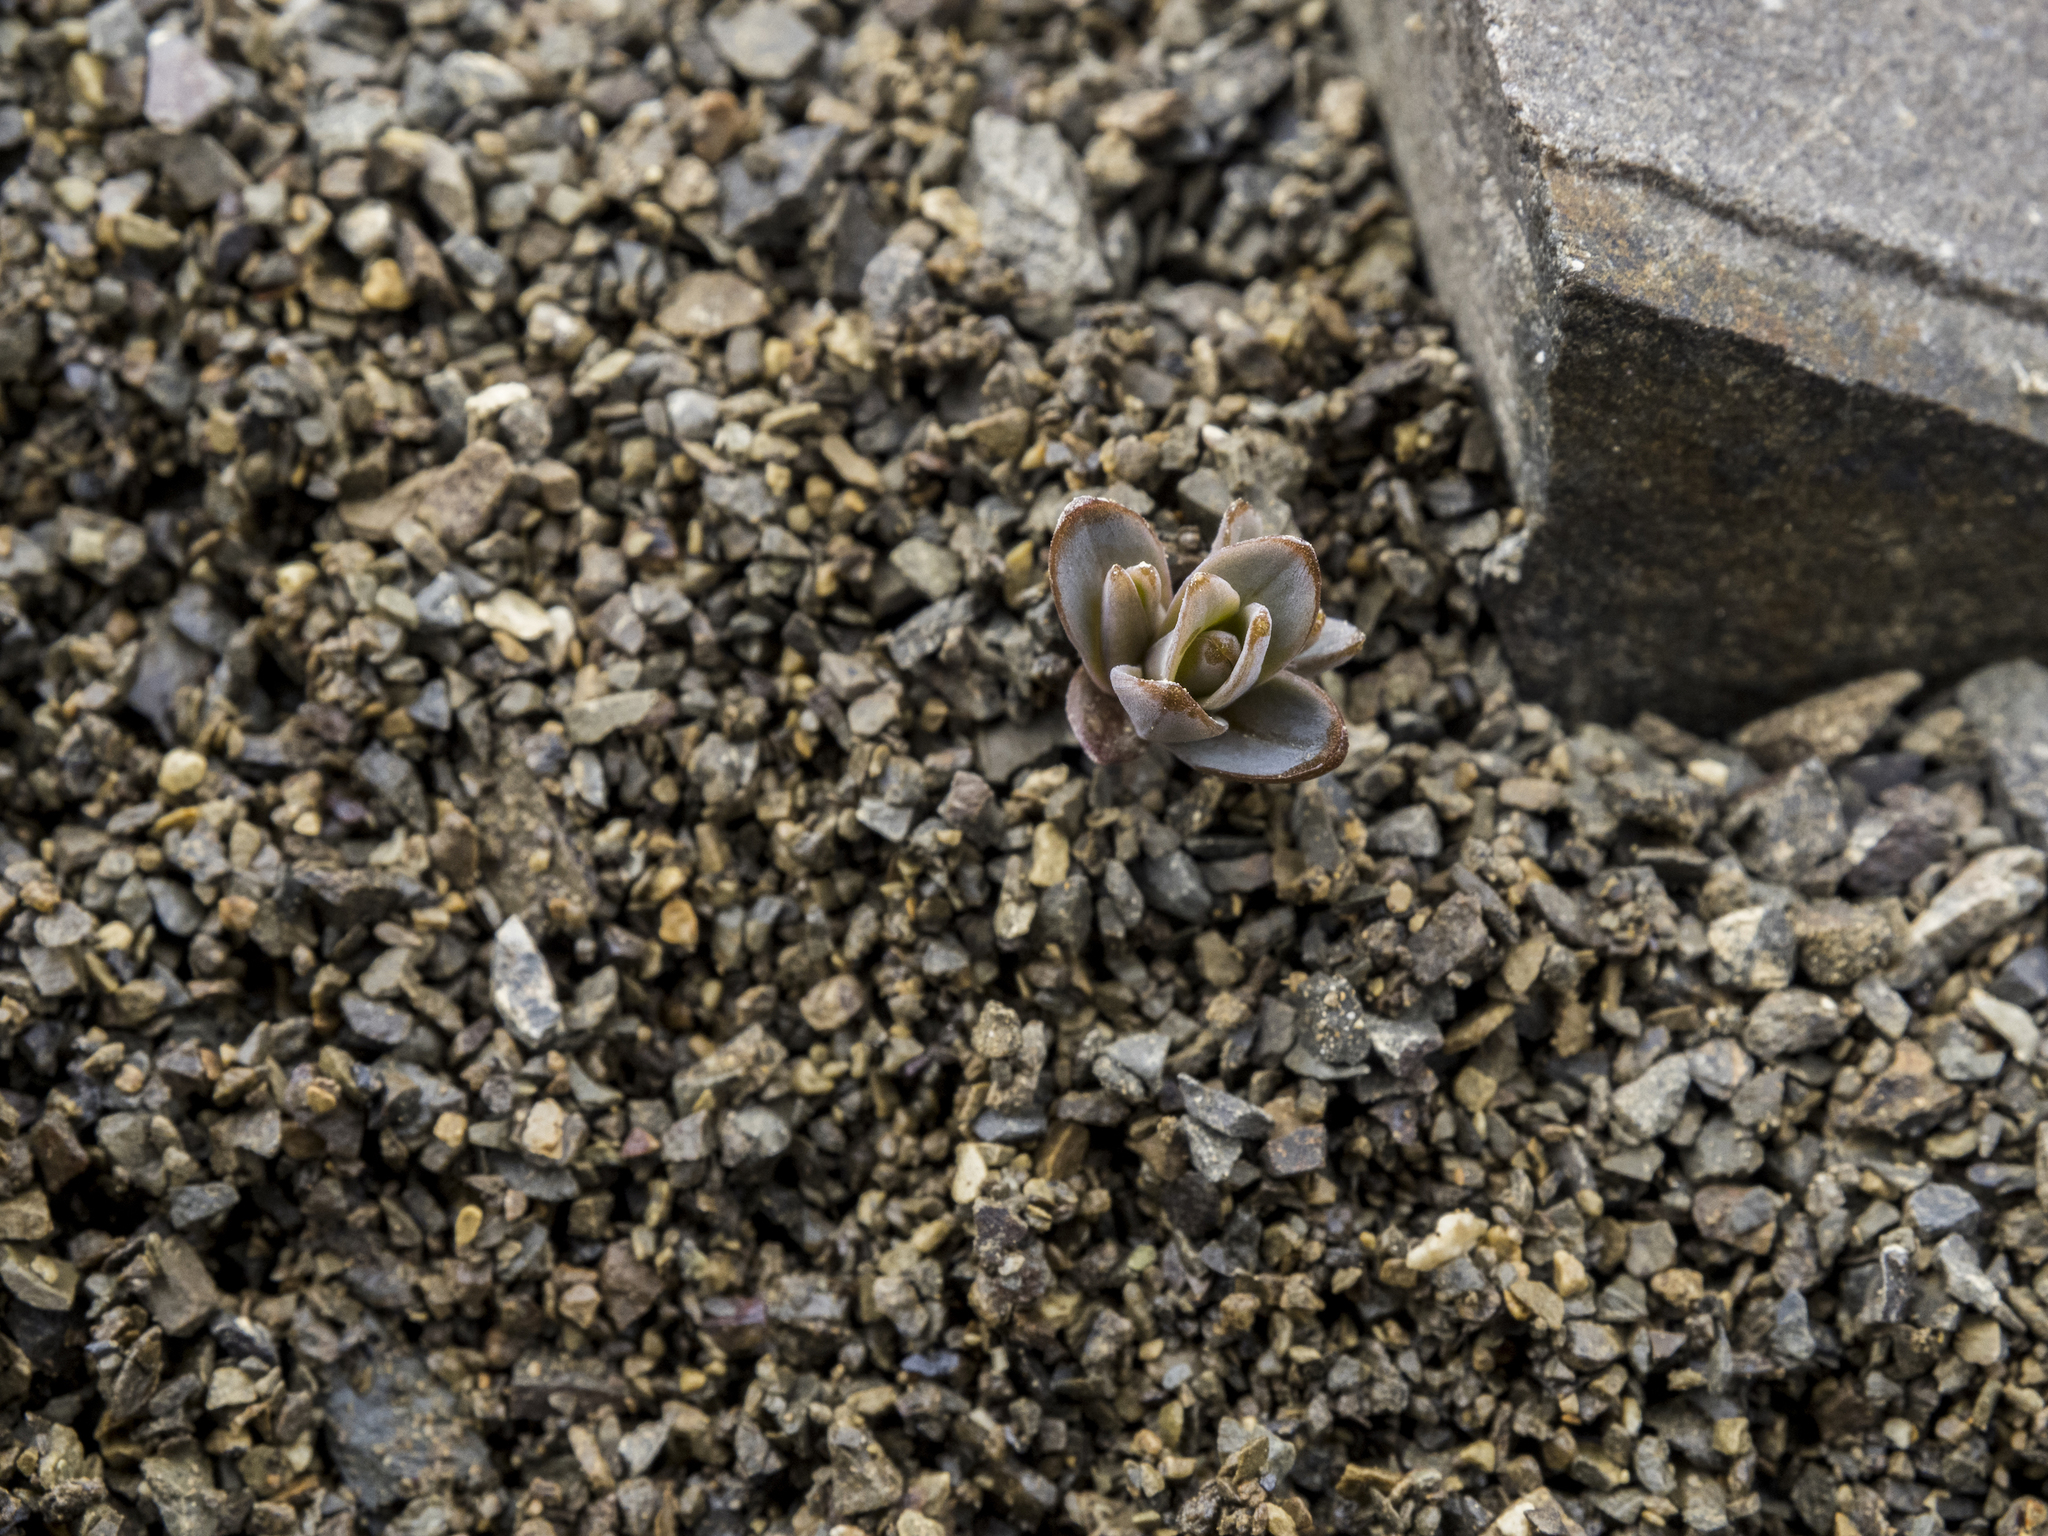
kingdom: Plantae
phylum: Tracheophyta
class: Magnoliopsida
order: Caryophyllales
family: Caryophyllaceae
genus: Stellaria
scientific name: Stellaria roughii
